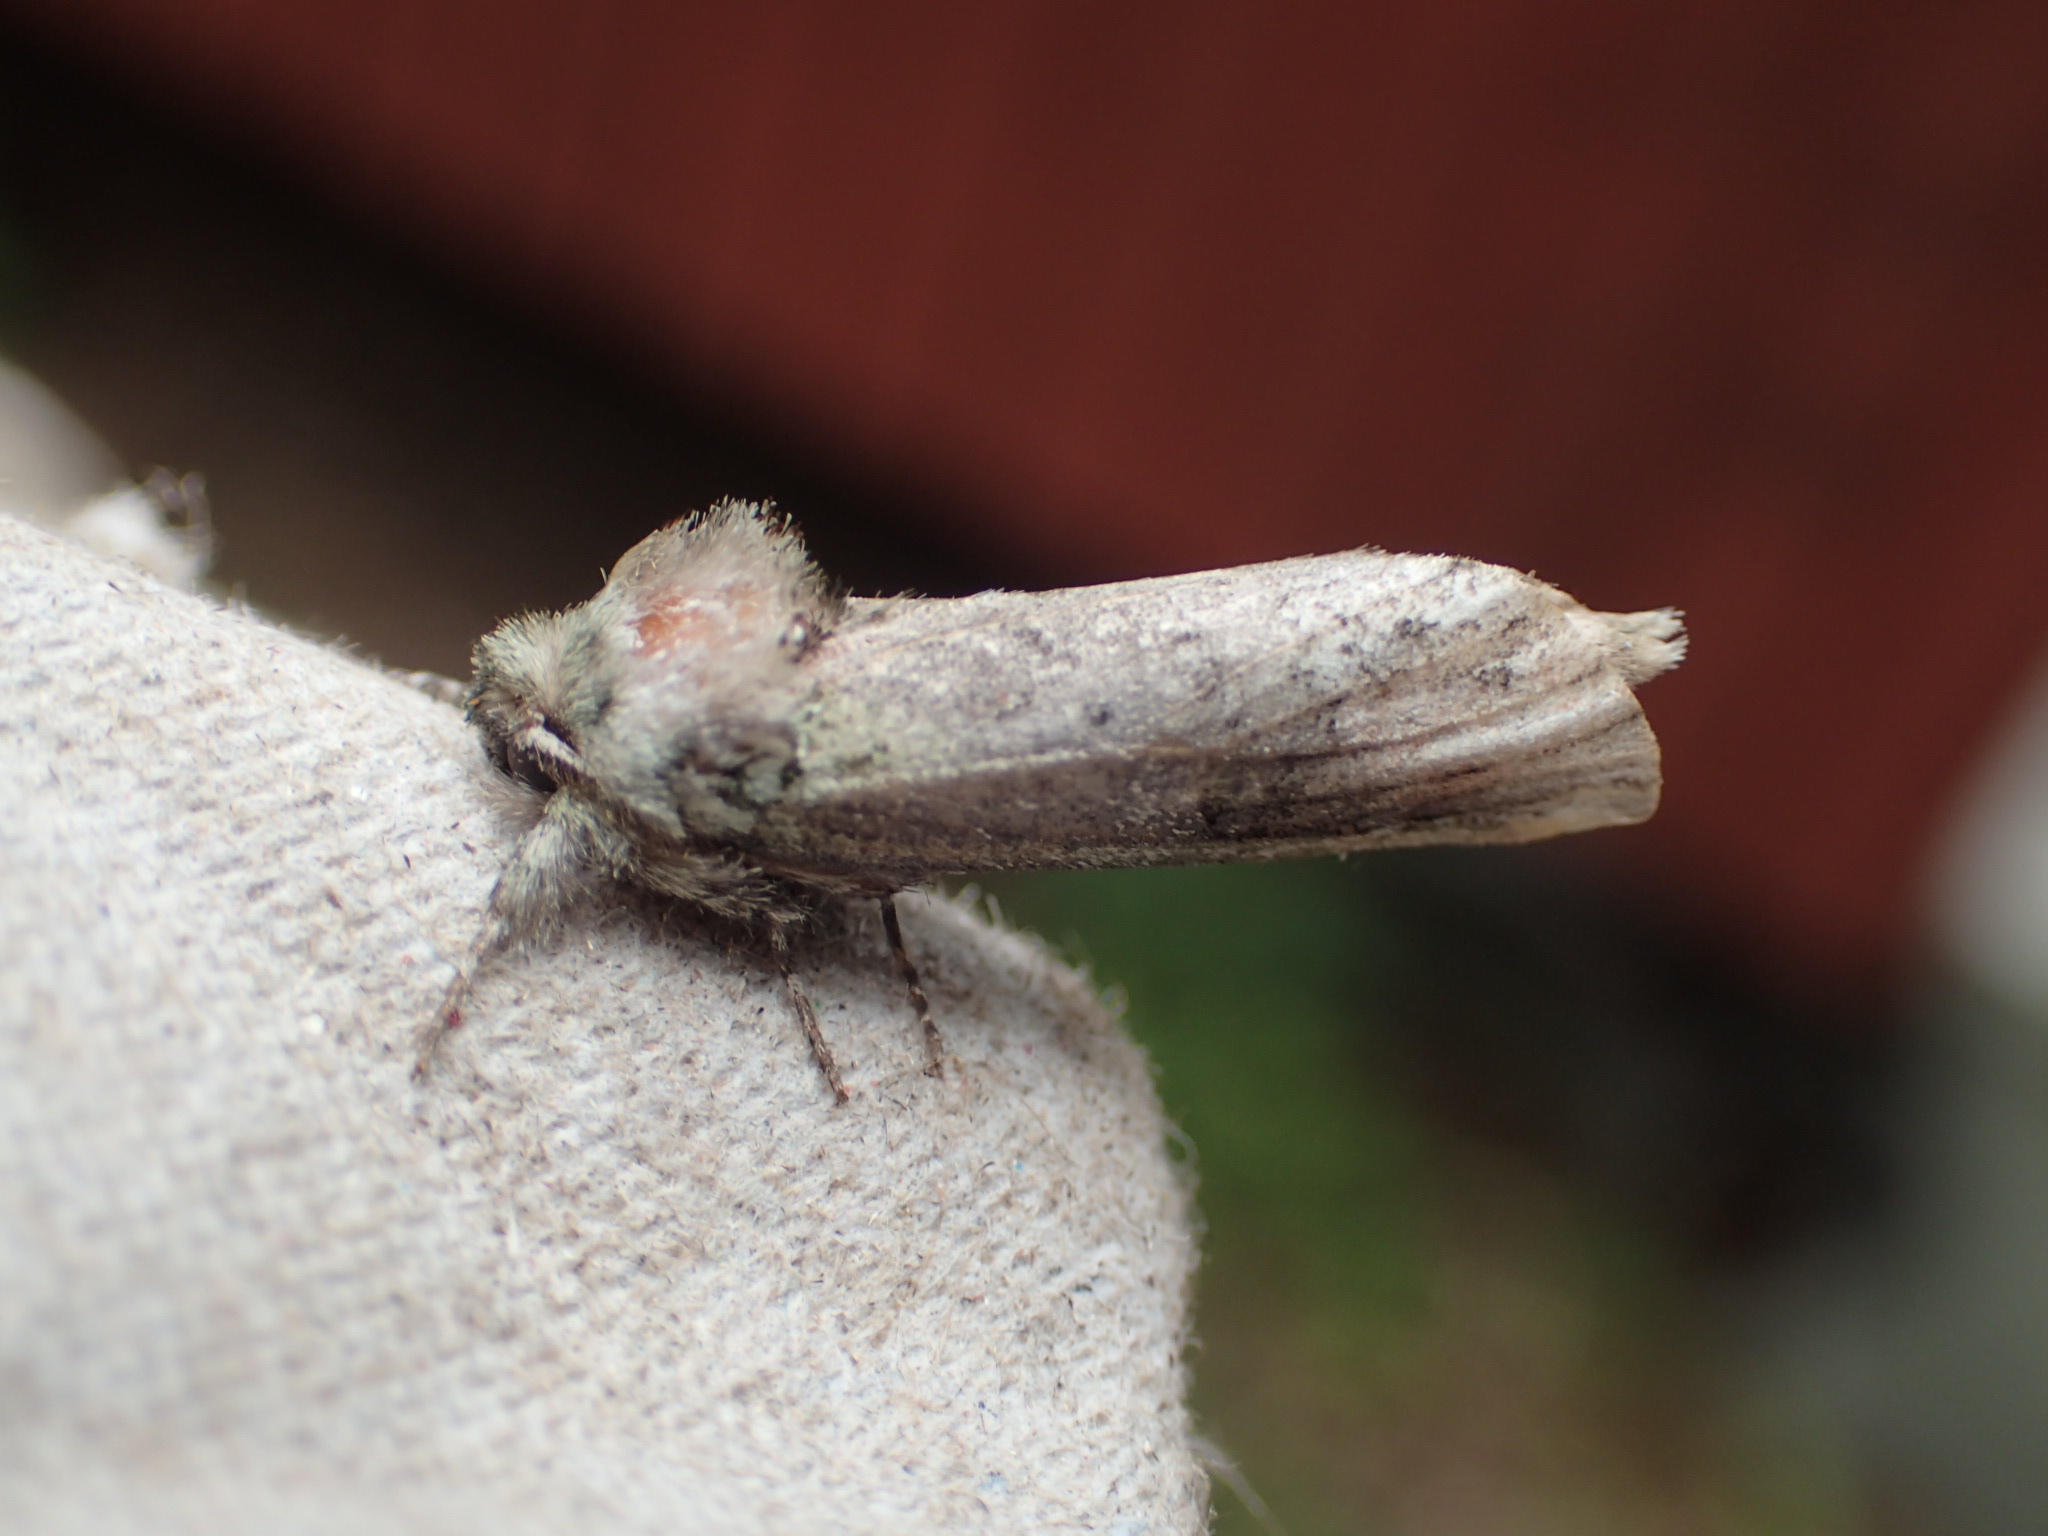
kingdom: Animalia
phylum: Arthropoda
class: Insecta
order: Lepidoptera
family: Notodontidae
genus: Schizura
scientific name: Schizura
